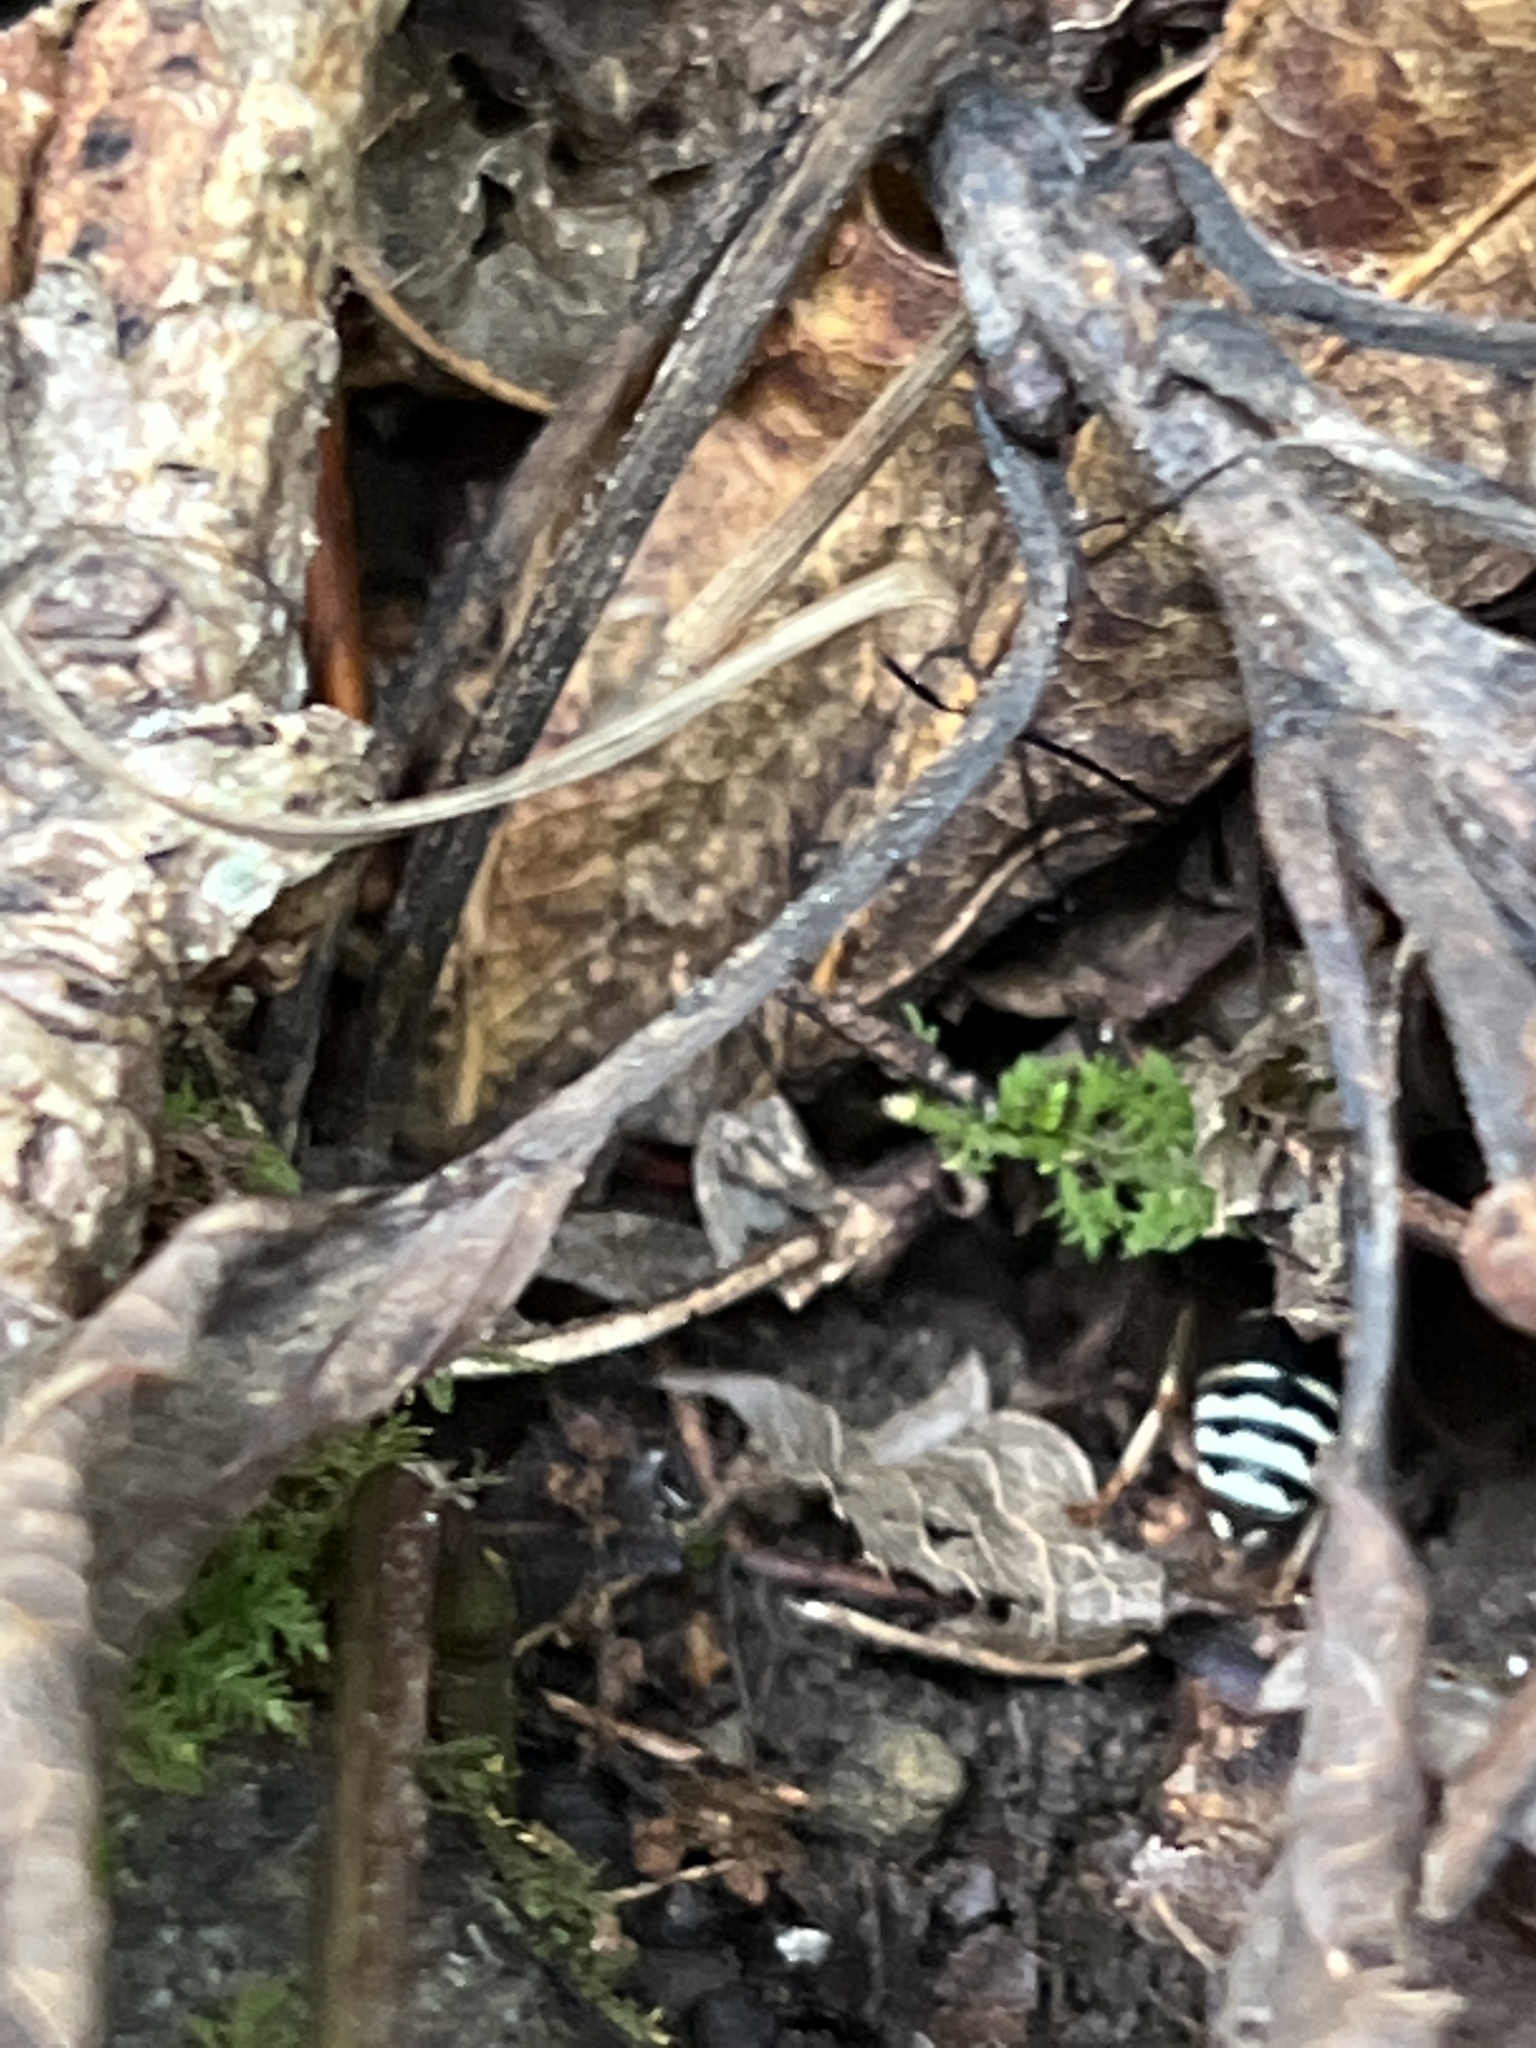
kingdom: Animalia
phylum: Arthropoda
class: Insecta
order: Hymenoptera
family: Vespidae
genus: Vespula
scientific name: Vespula consobrina
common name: Blackjacket
